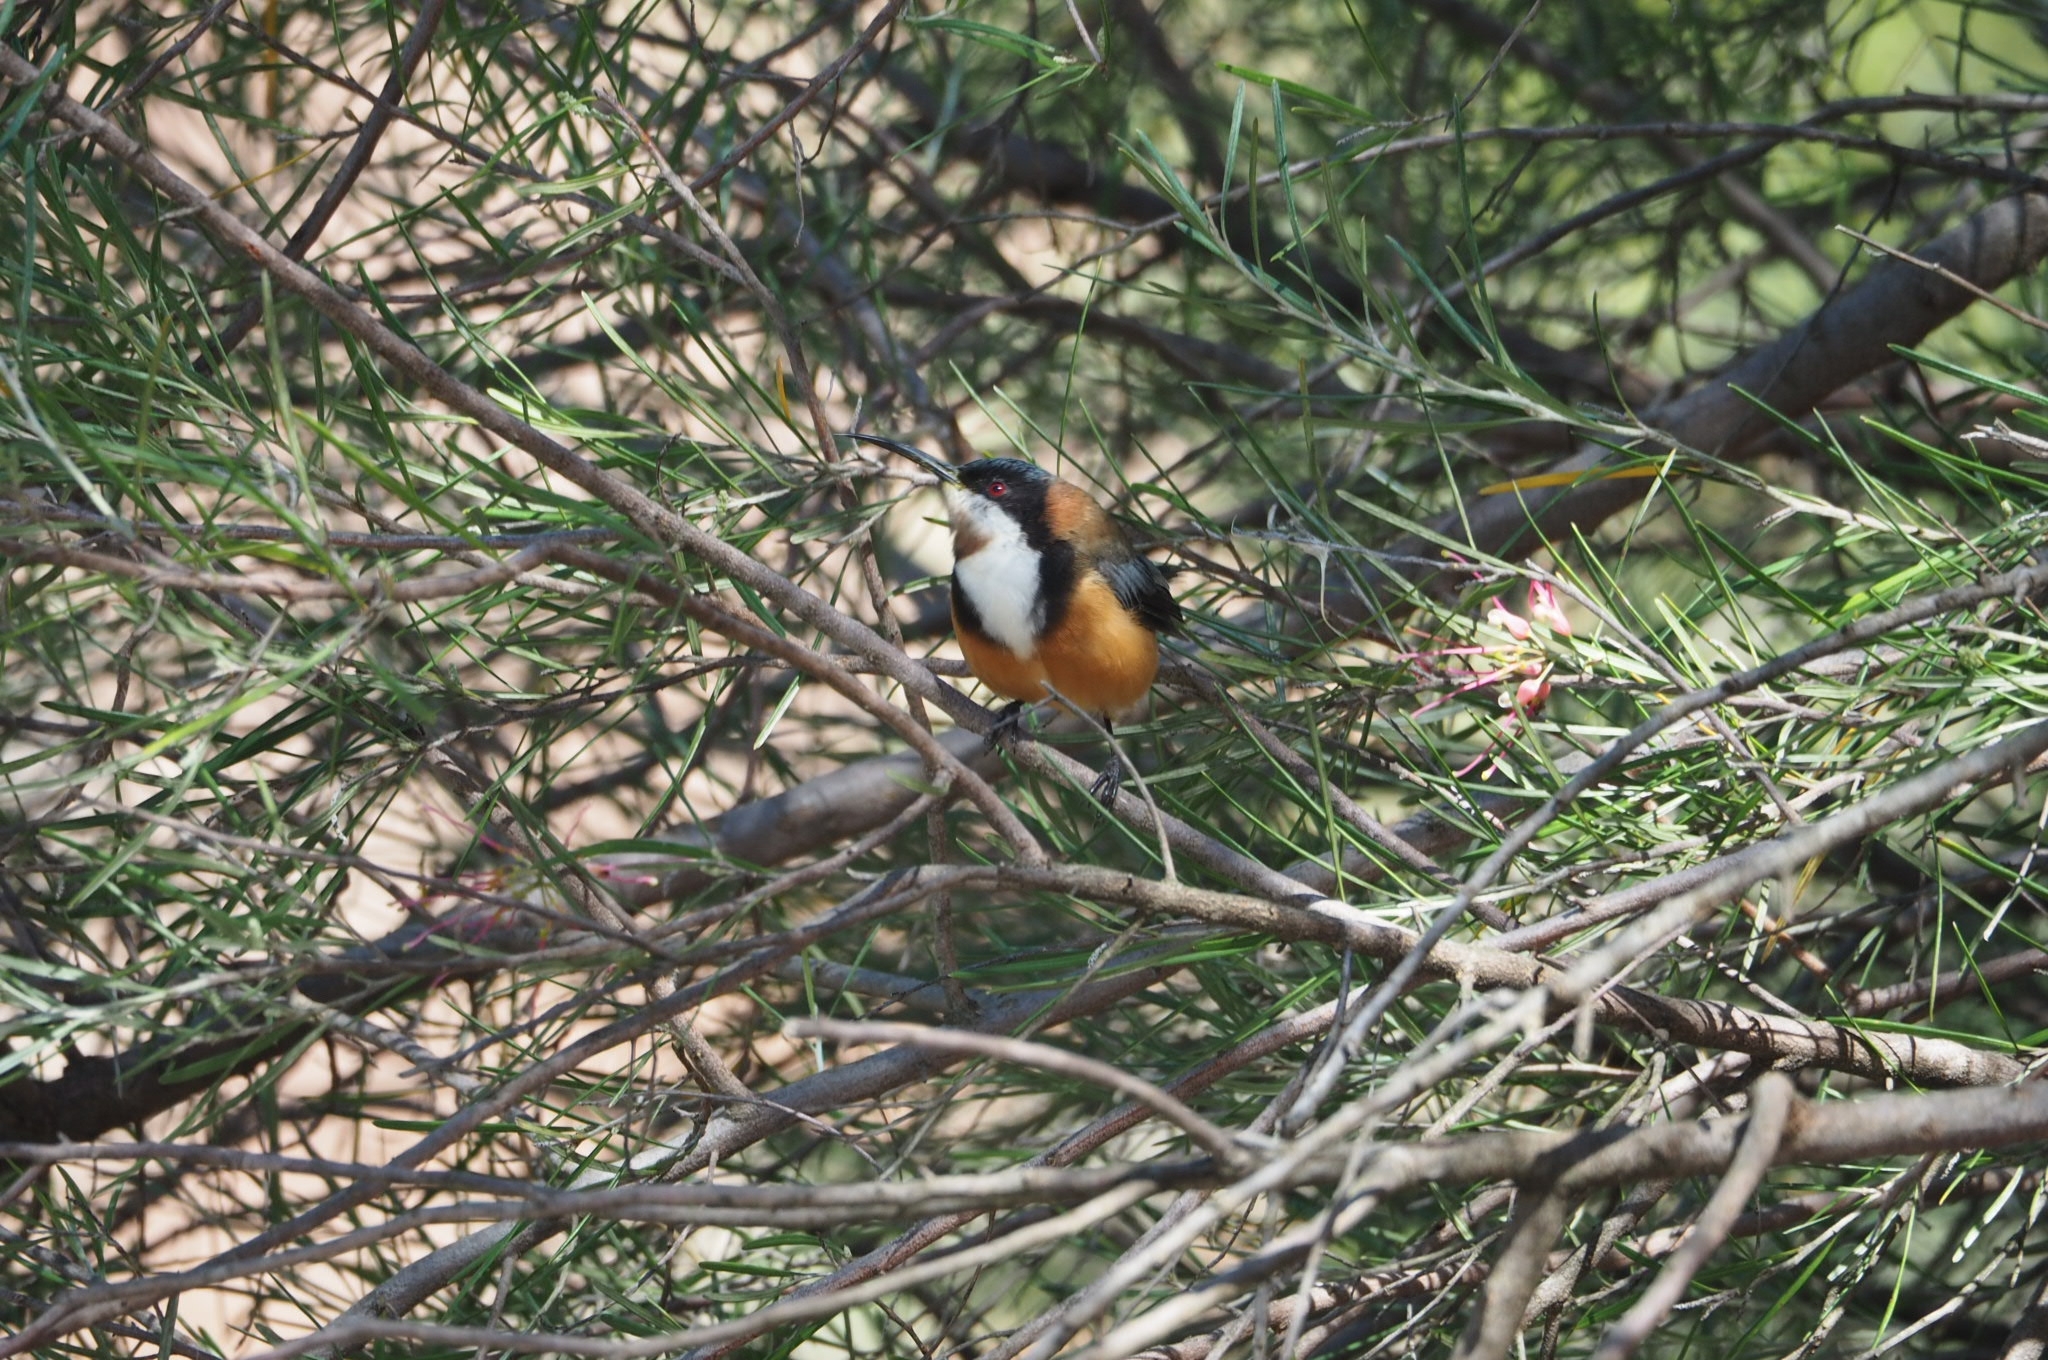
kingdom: Animalia
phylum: Chordata
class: Aves
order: Passeriformes
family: Meliphagidae
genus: Acanthorhynchus
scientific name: Acanthorhynchus tenuirostris
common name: Eastern spinebill
